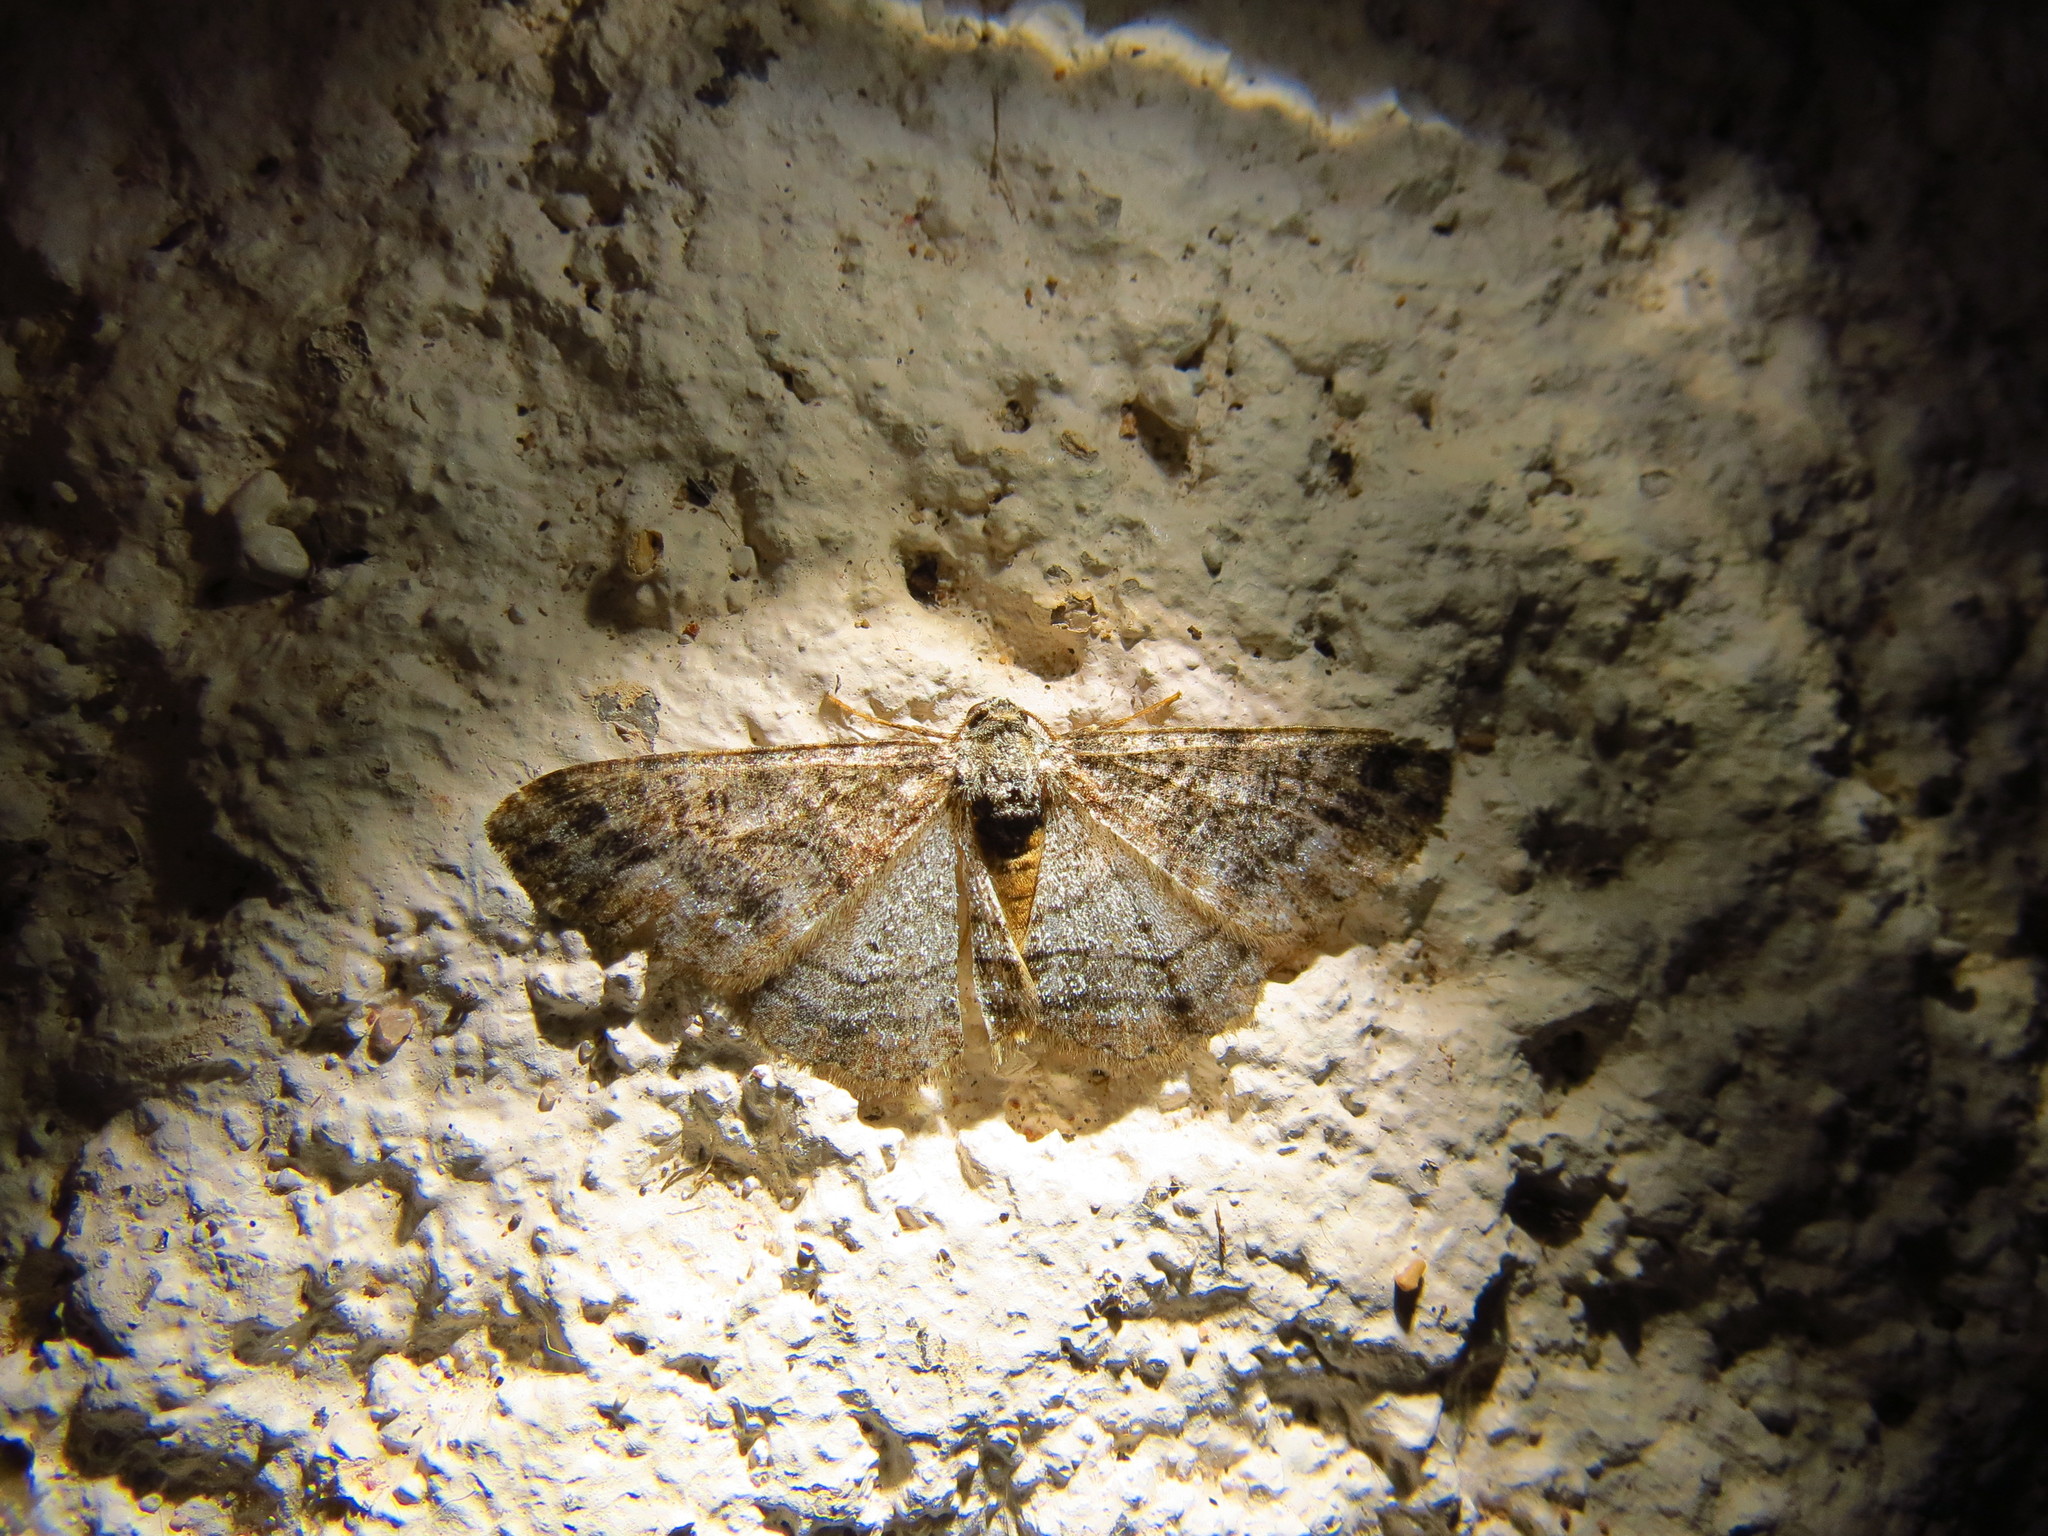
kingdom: Animalia
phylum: Arthropoda
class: Insecta
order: Lepidoptera
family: Geometridae
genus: Parapheromia
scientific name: Parapheromia cassinoi
